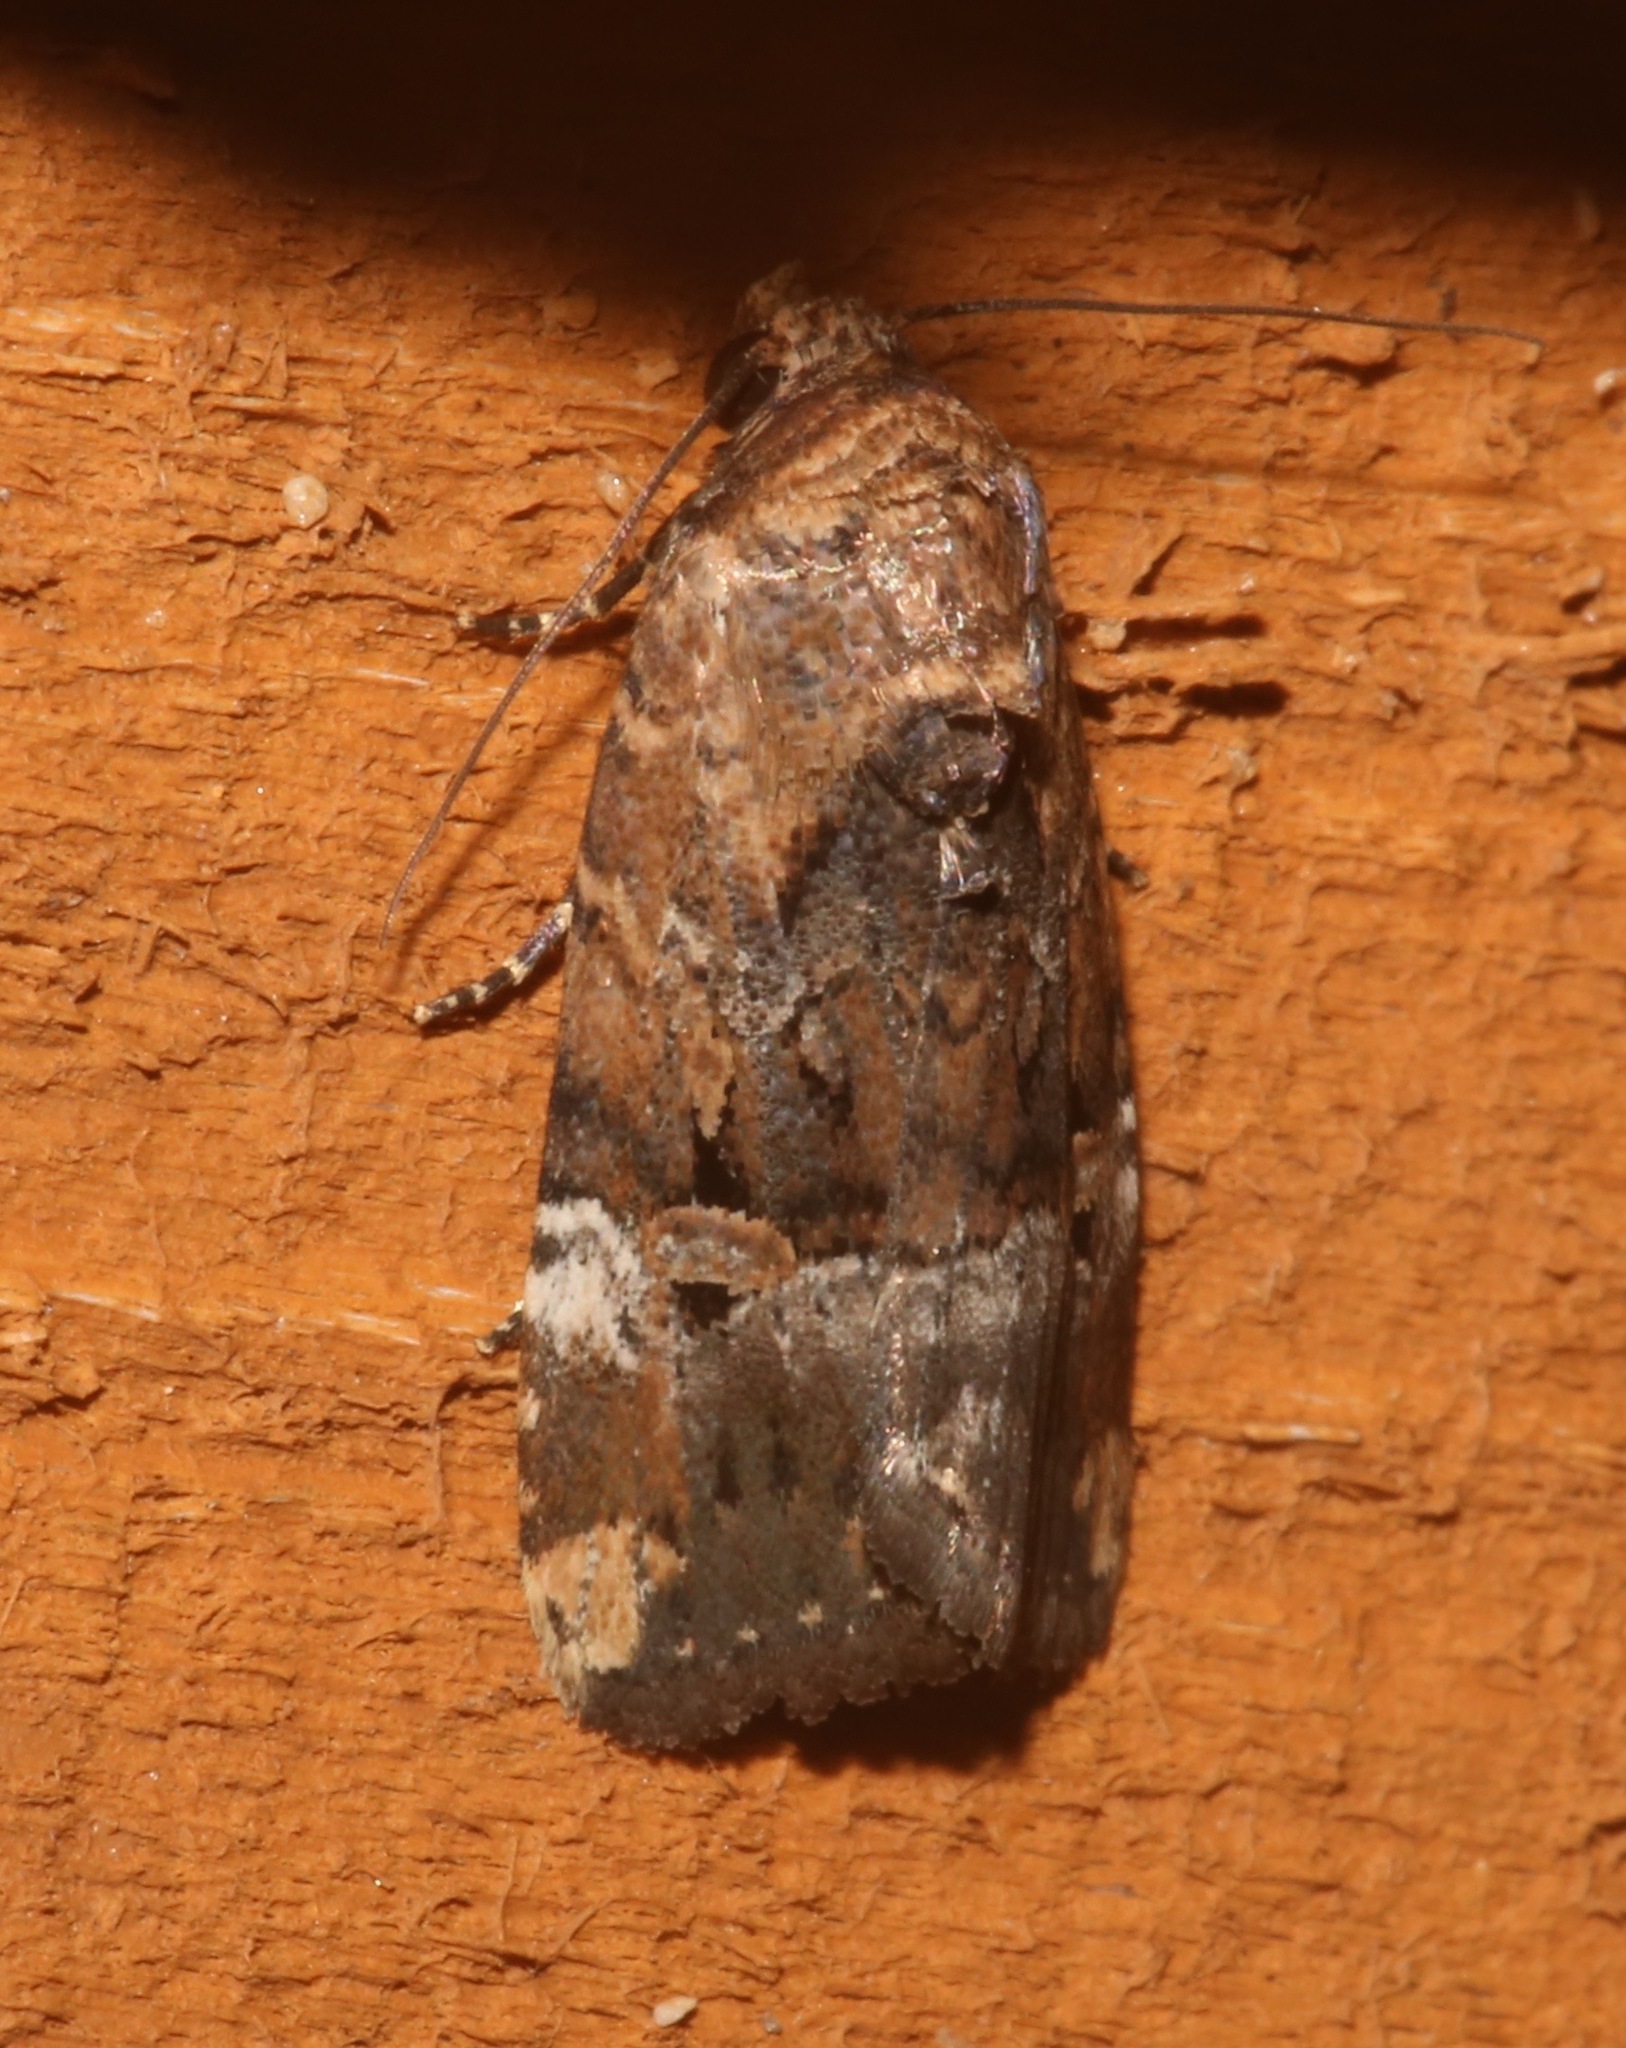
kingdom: Animalia
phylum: Arthropoda
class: Insecta
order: Lepidoptera
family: Noctuidae
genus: Elaphria
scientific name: Elaphria chalcedonia
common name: Chalcedony midget
